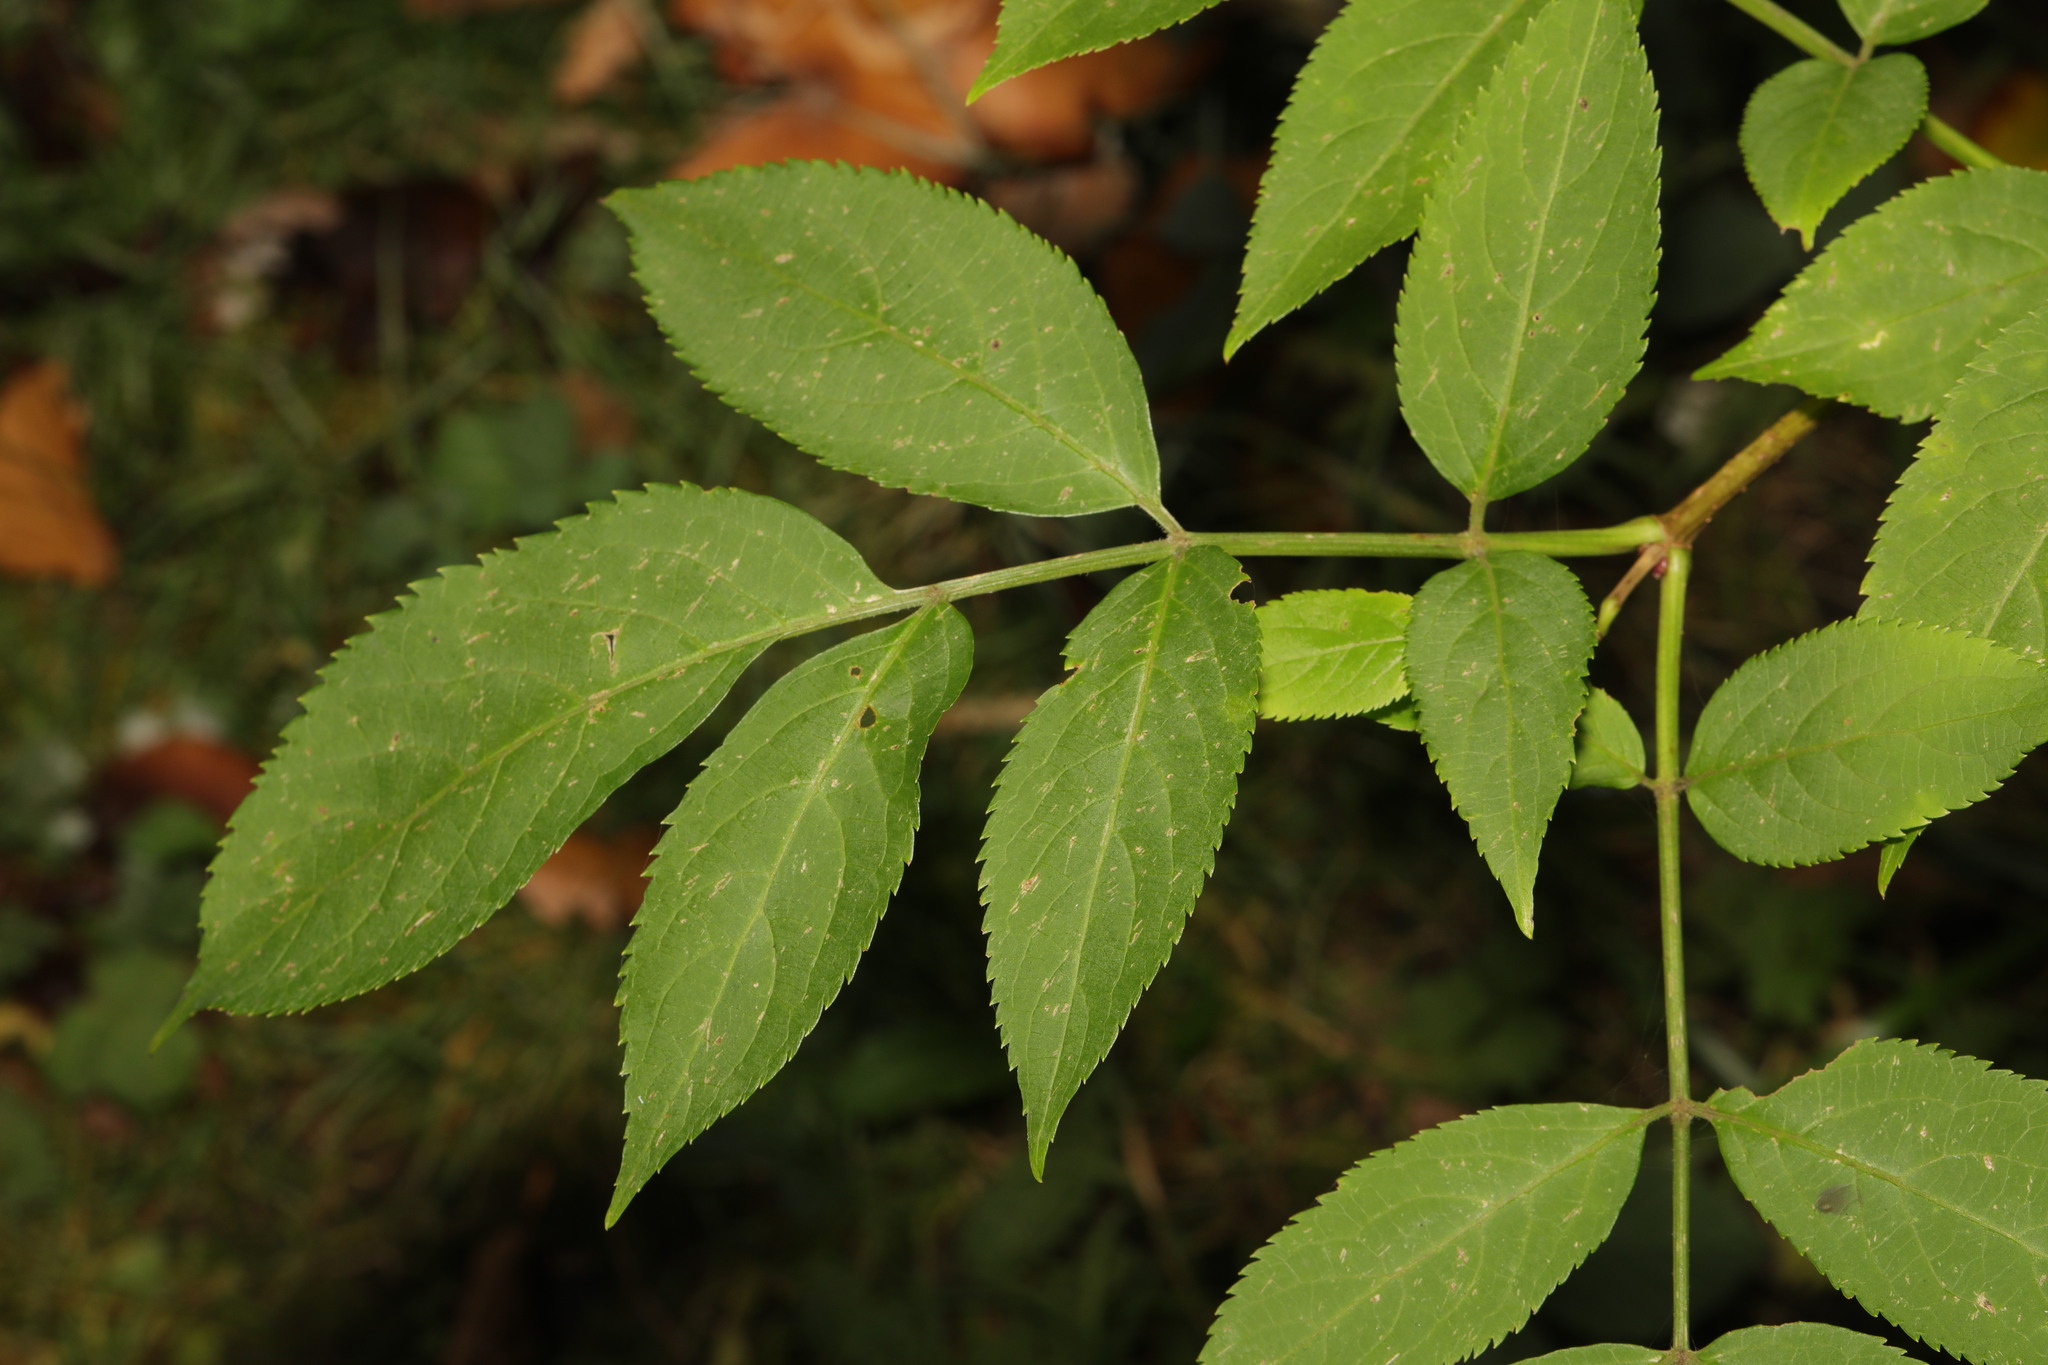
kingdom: Plantae
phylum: Tracheophyta
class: Magnoliopsida
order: Dipsacales
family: Viburnaceae
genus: Sambucus
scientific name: Sambucus nigra
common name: Elder
